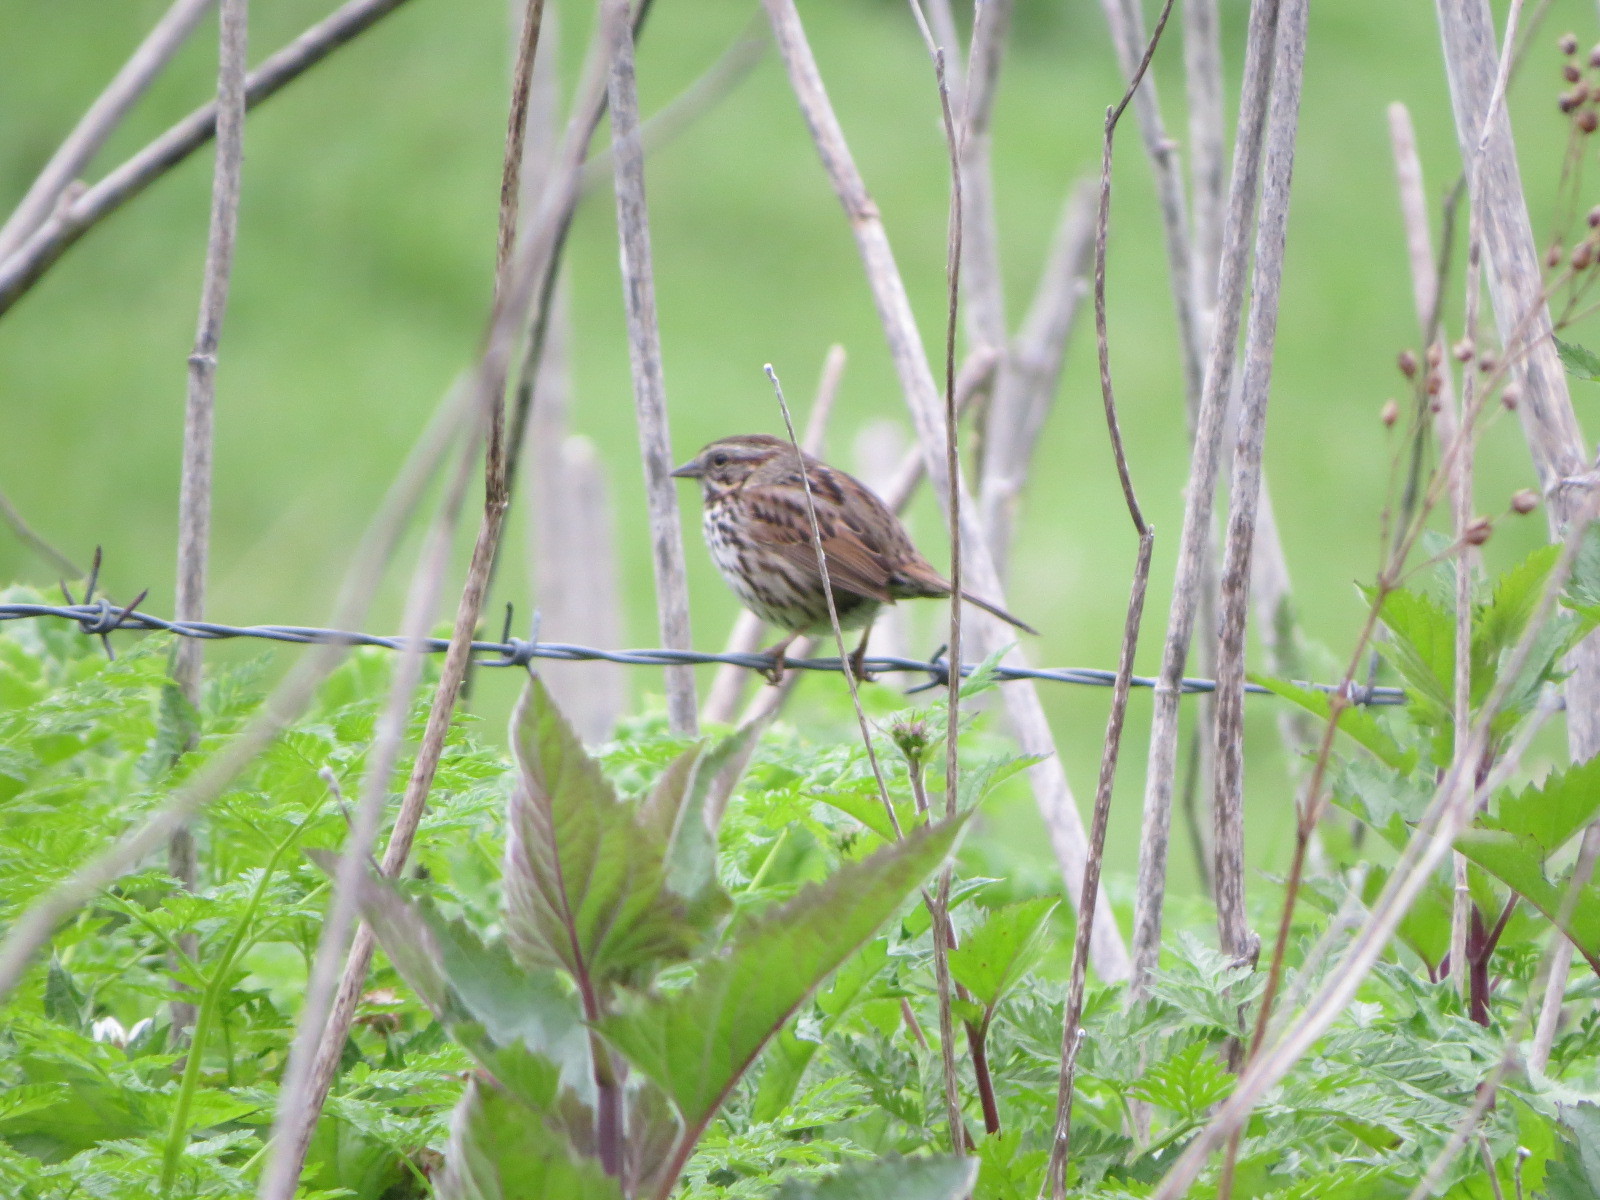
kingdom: Animalia
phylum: Chordata
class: Aves
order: Passeriformes
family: Passerellidae
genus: Melospiza
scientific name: Melospiza melodia
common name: Song sparrow
